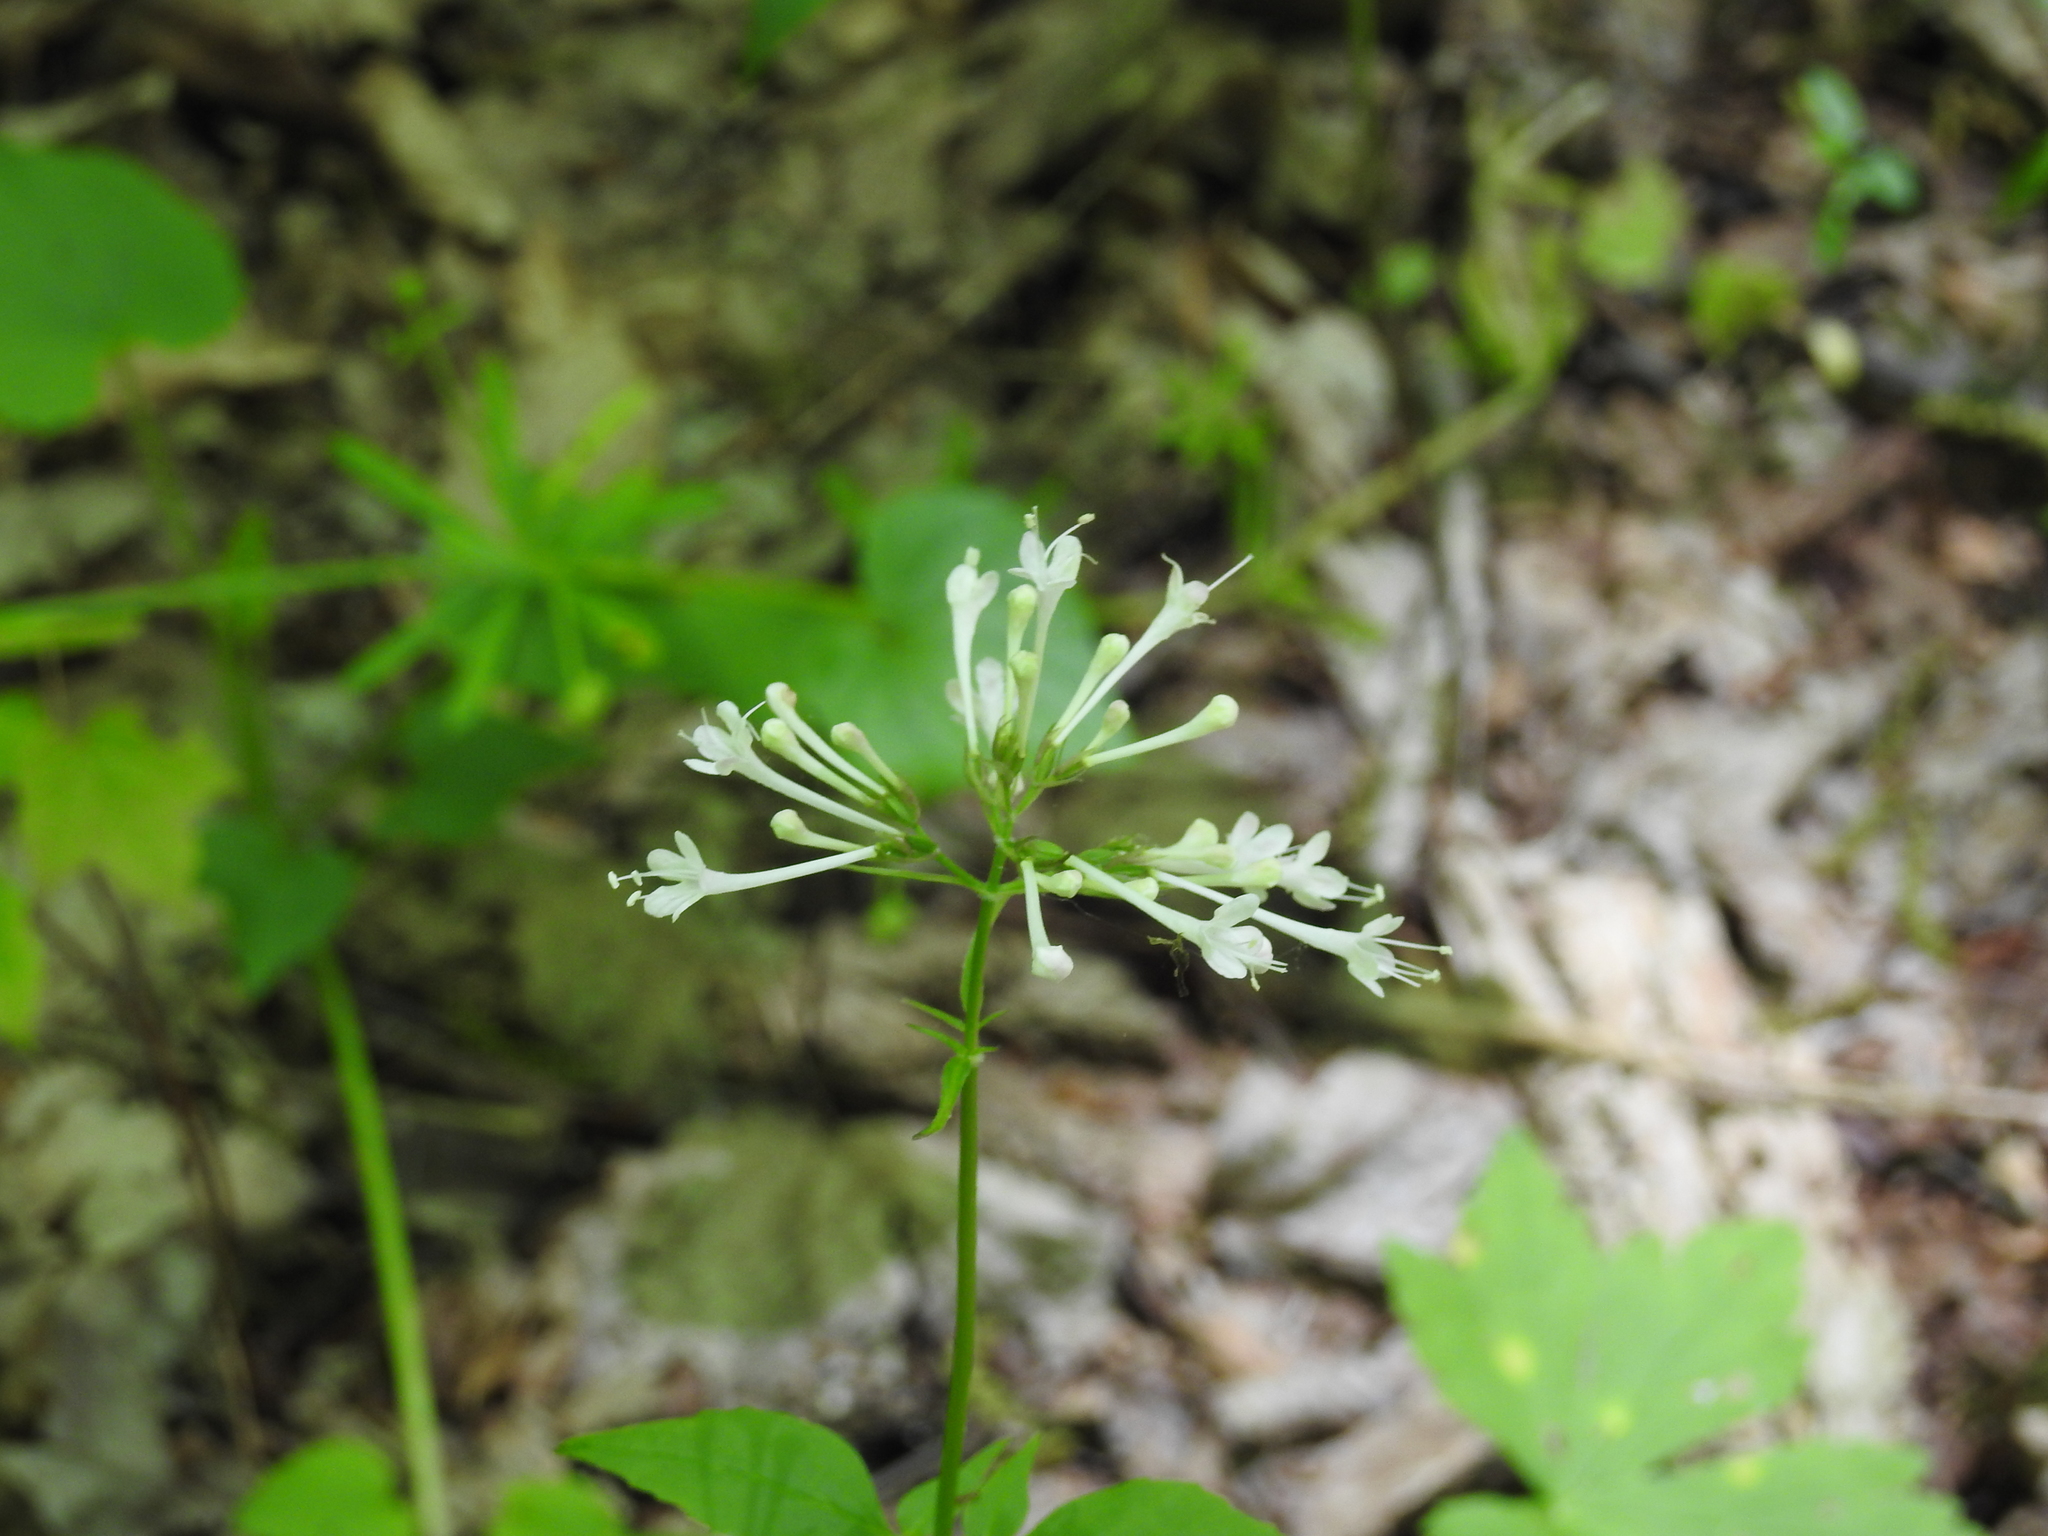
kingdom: Plantae
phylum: Tracheophyta
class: Magnoliopsida
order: Dipsacales
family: Caprifoliaceae
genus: Valeriana
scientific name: Valeriana pauciflora
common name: Long-tube valeriana
